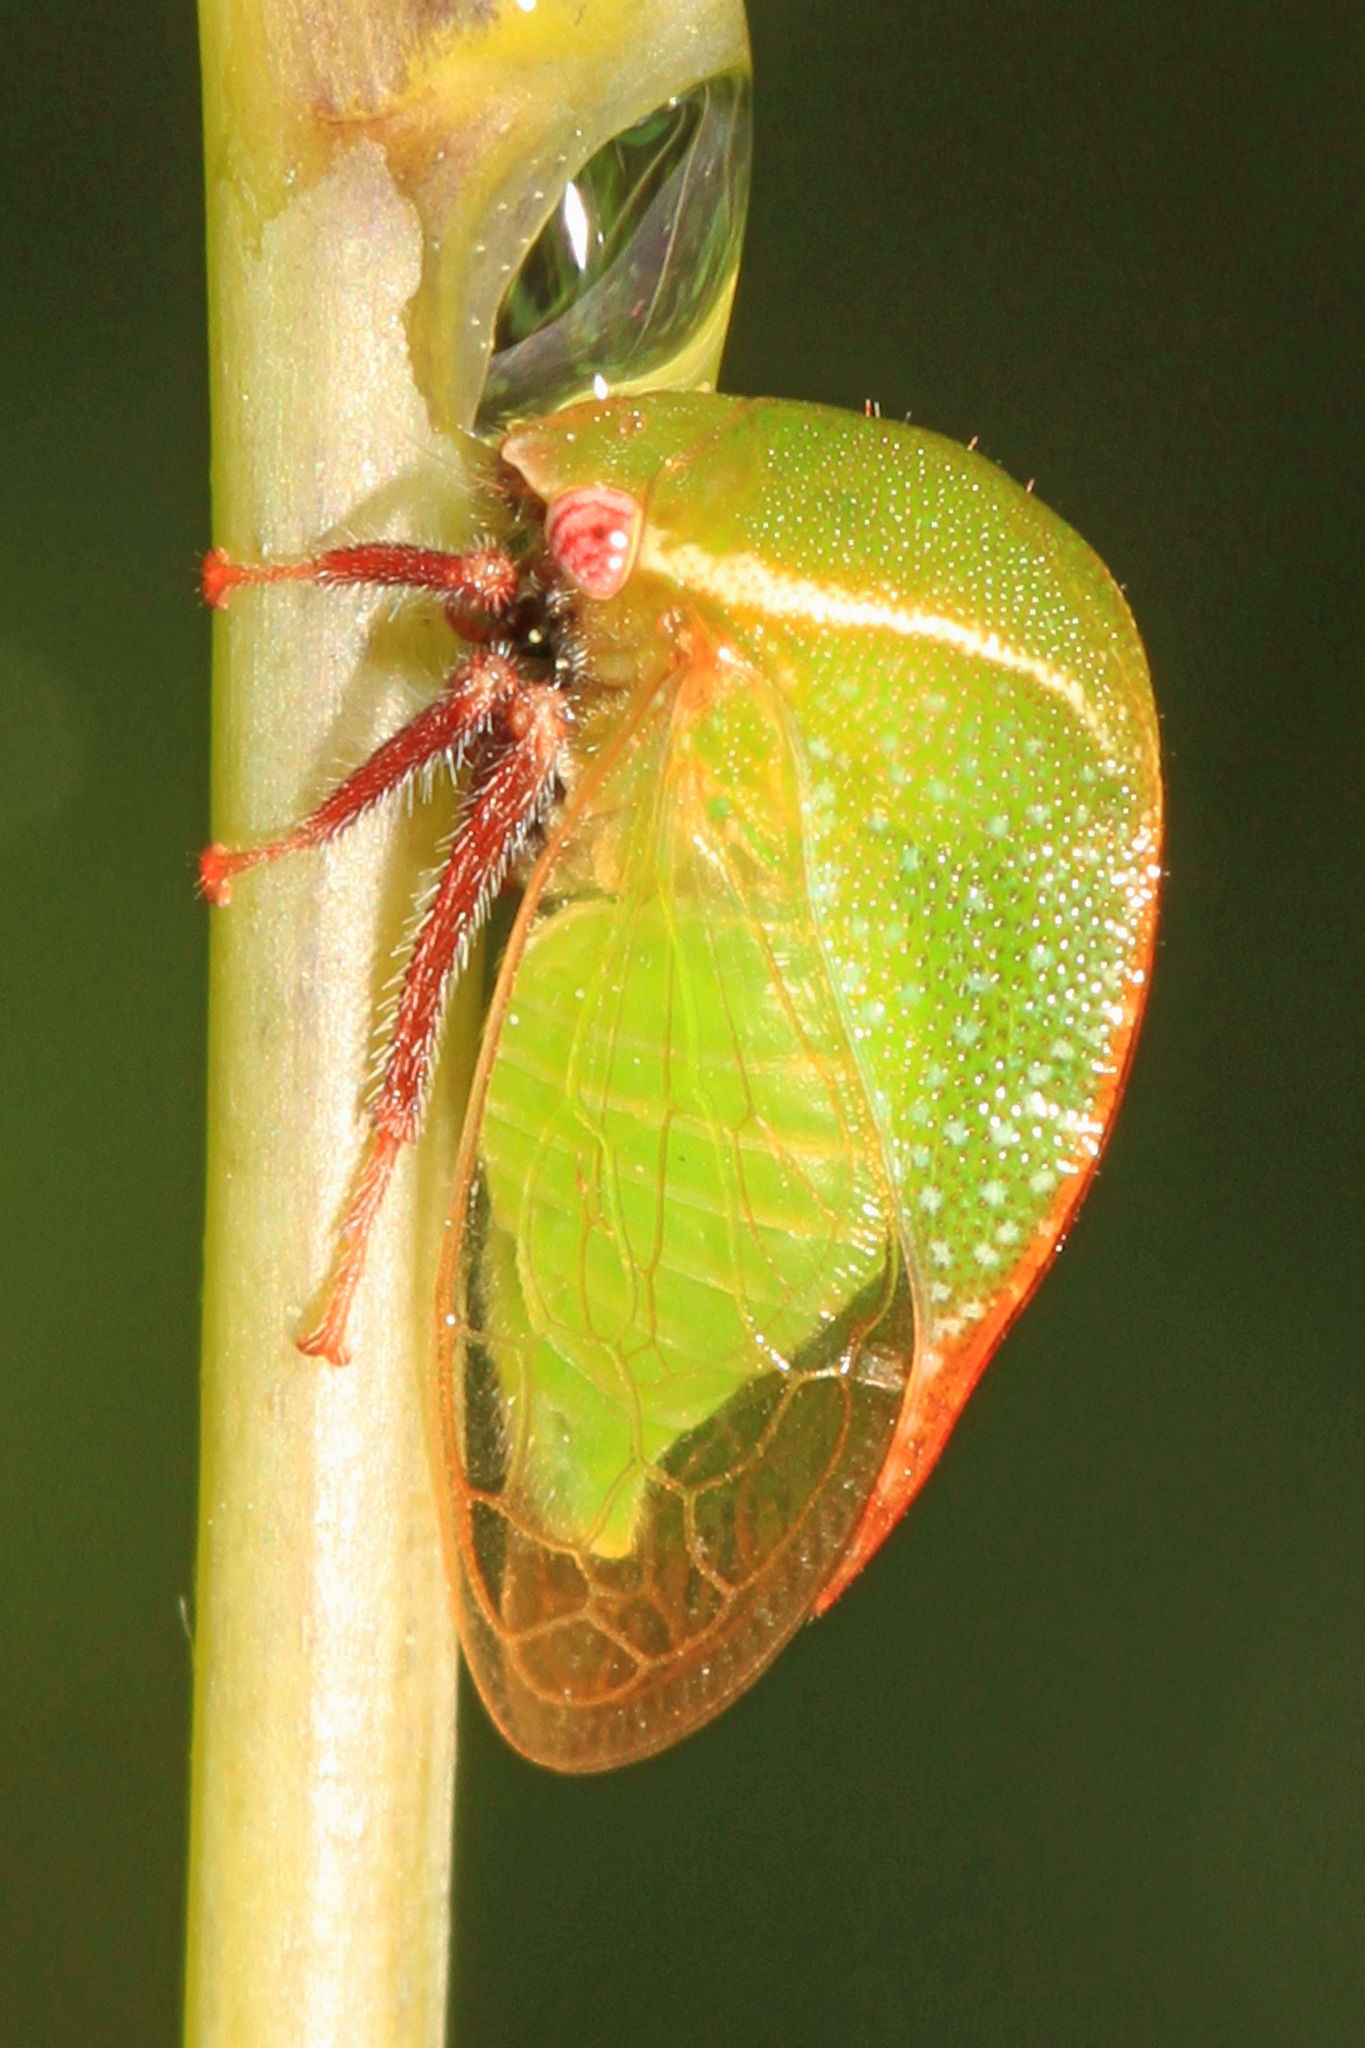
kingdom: Animalia
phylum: Arthropoda
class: Insecta
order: Hemiptera
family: Membracidae
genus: Stictocephala
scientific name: Stictocephala lutea
